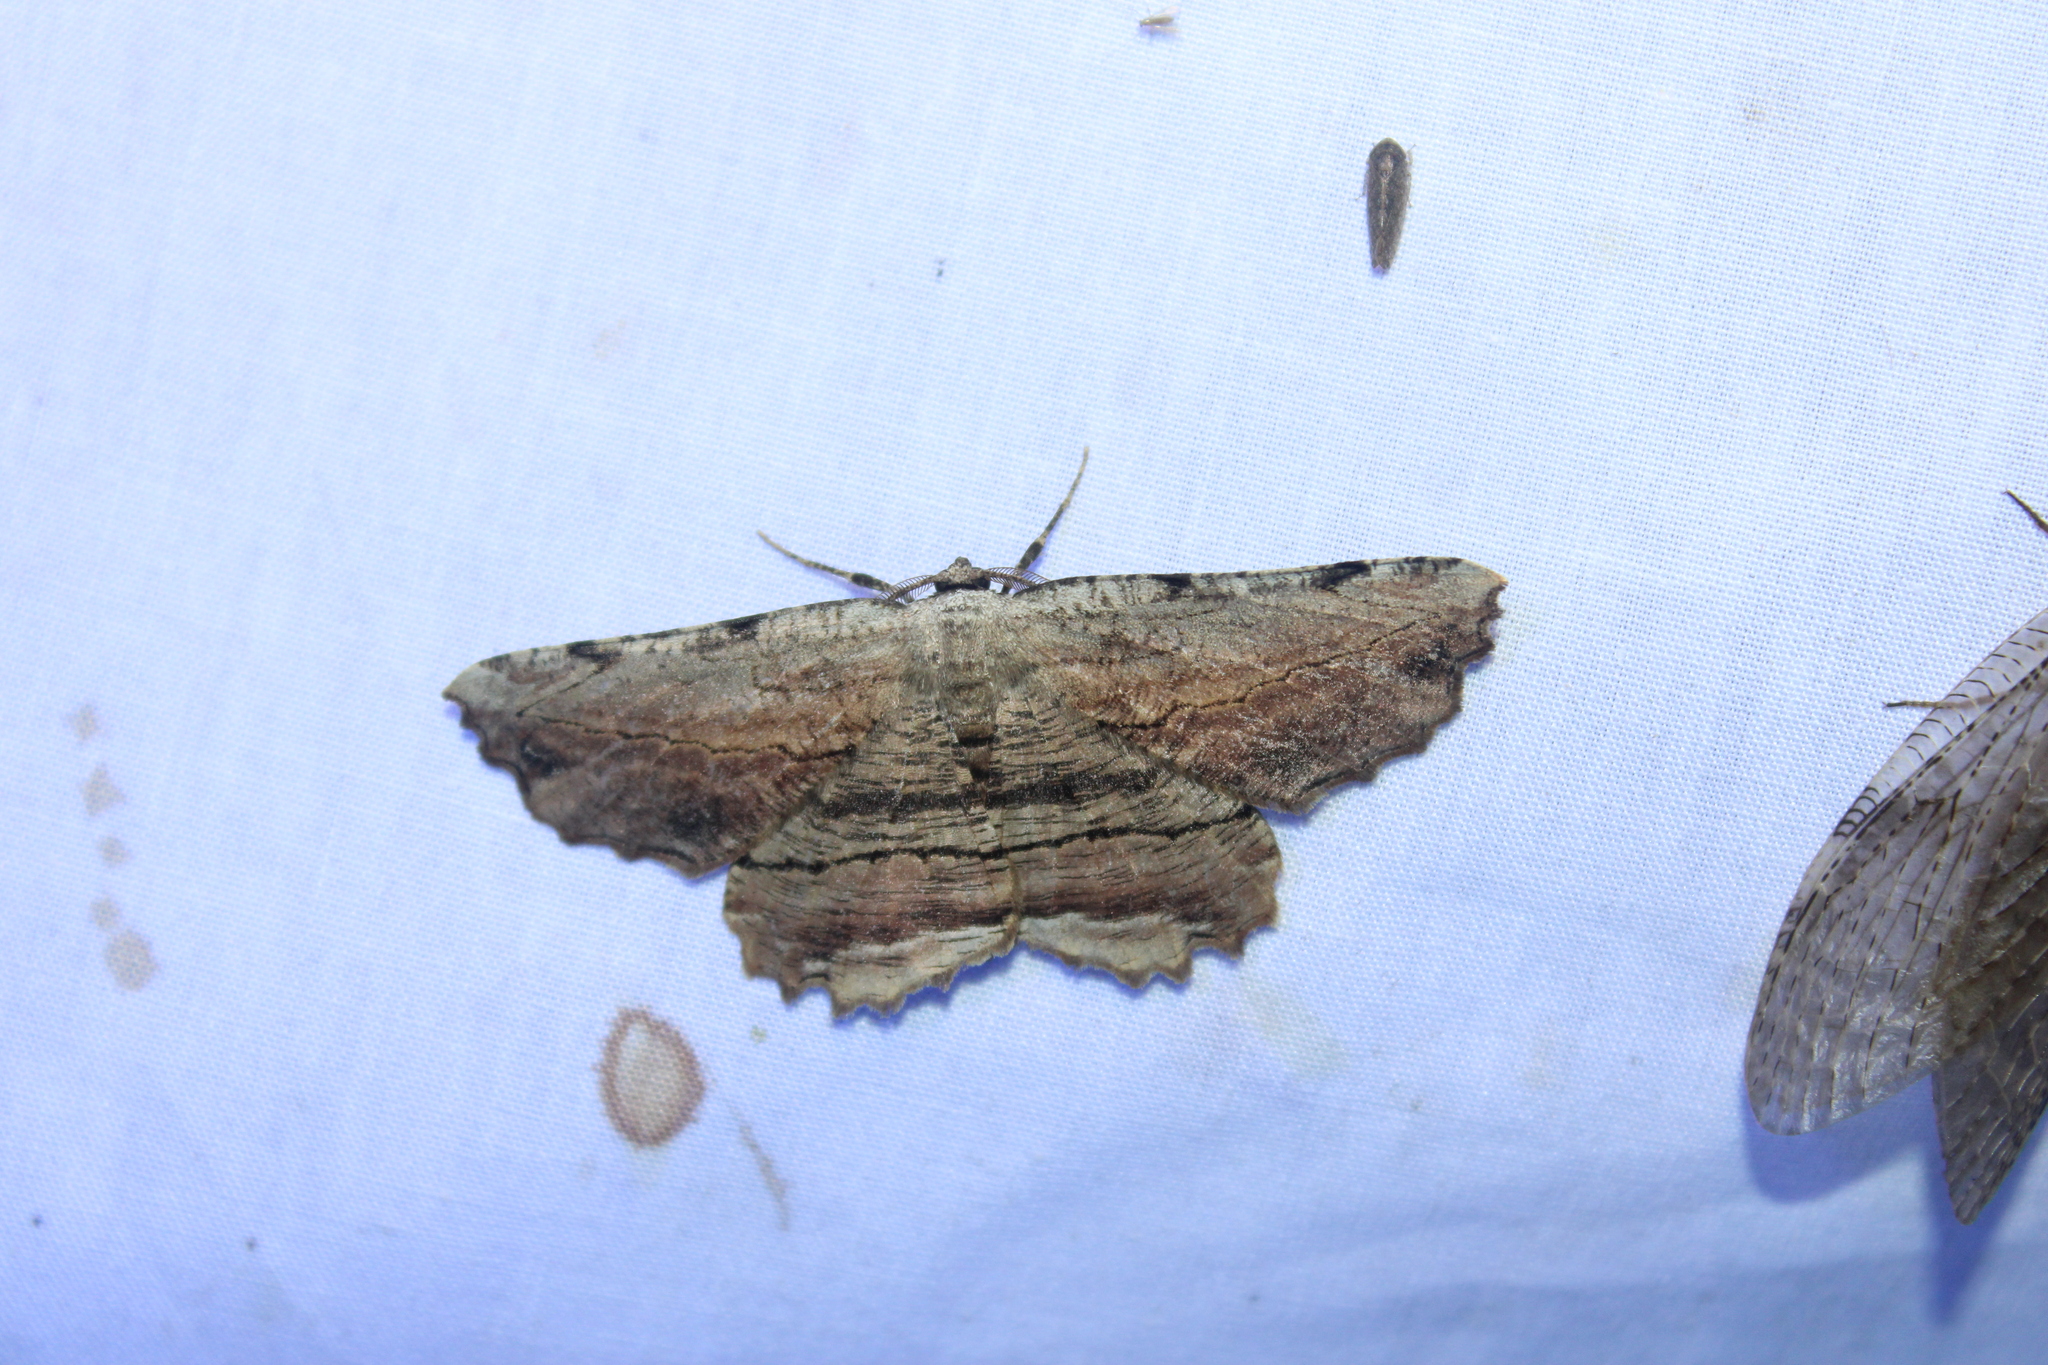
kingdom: Animalia
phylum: Arthropoda
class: Insecta
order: Lepidoptera
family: Geometridae
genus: Lytrosis
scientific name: Lytrosis unitaria
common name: Common lytrosis
